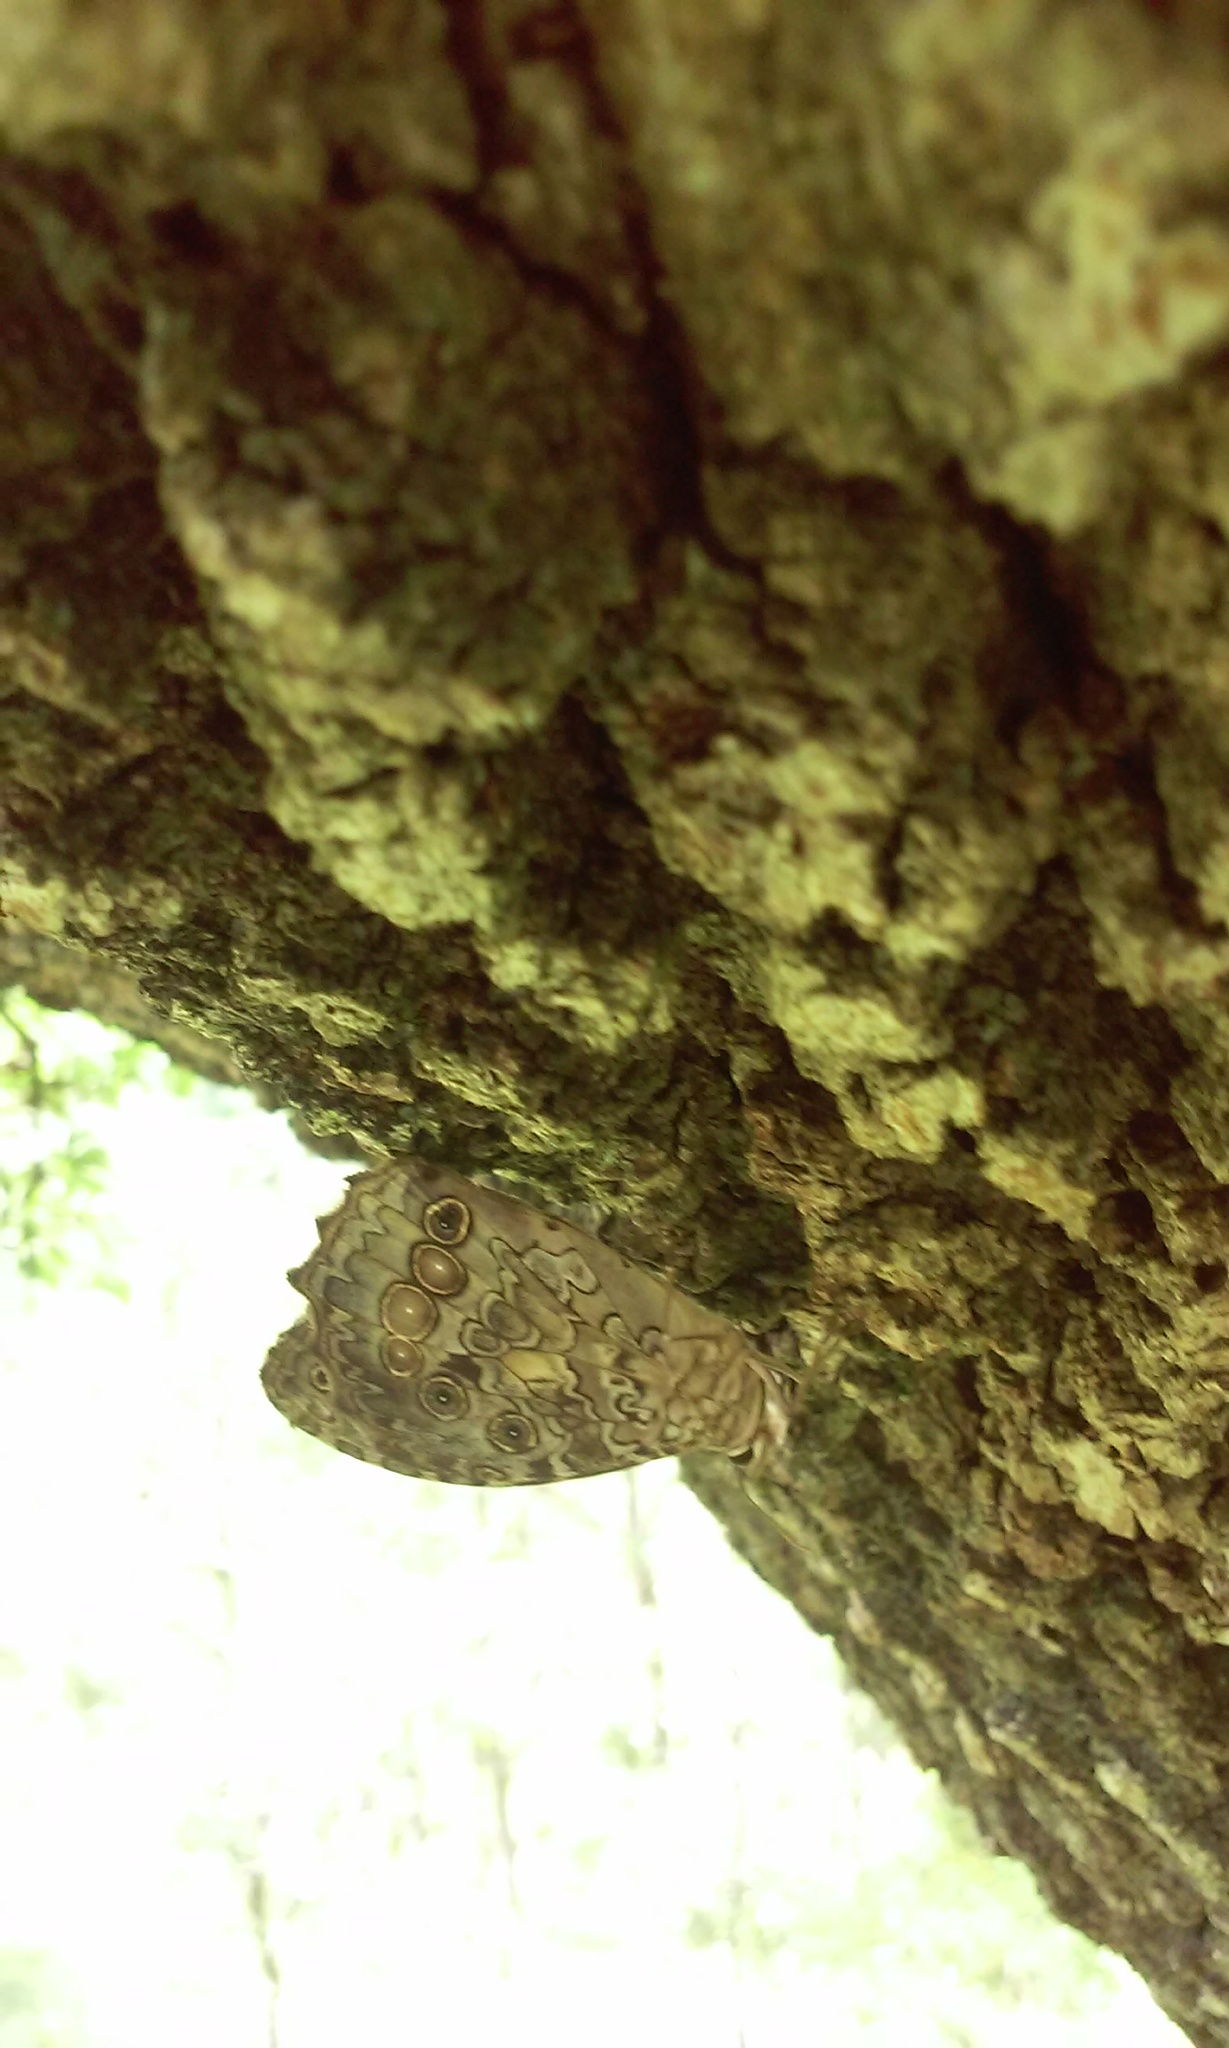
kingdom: Animalia
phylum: Arthropoda
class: Insecta
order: Lepidoptera
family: Nymphalidae
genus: Manataria
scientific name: Manataria maculata
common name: White-spotted satyr
